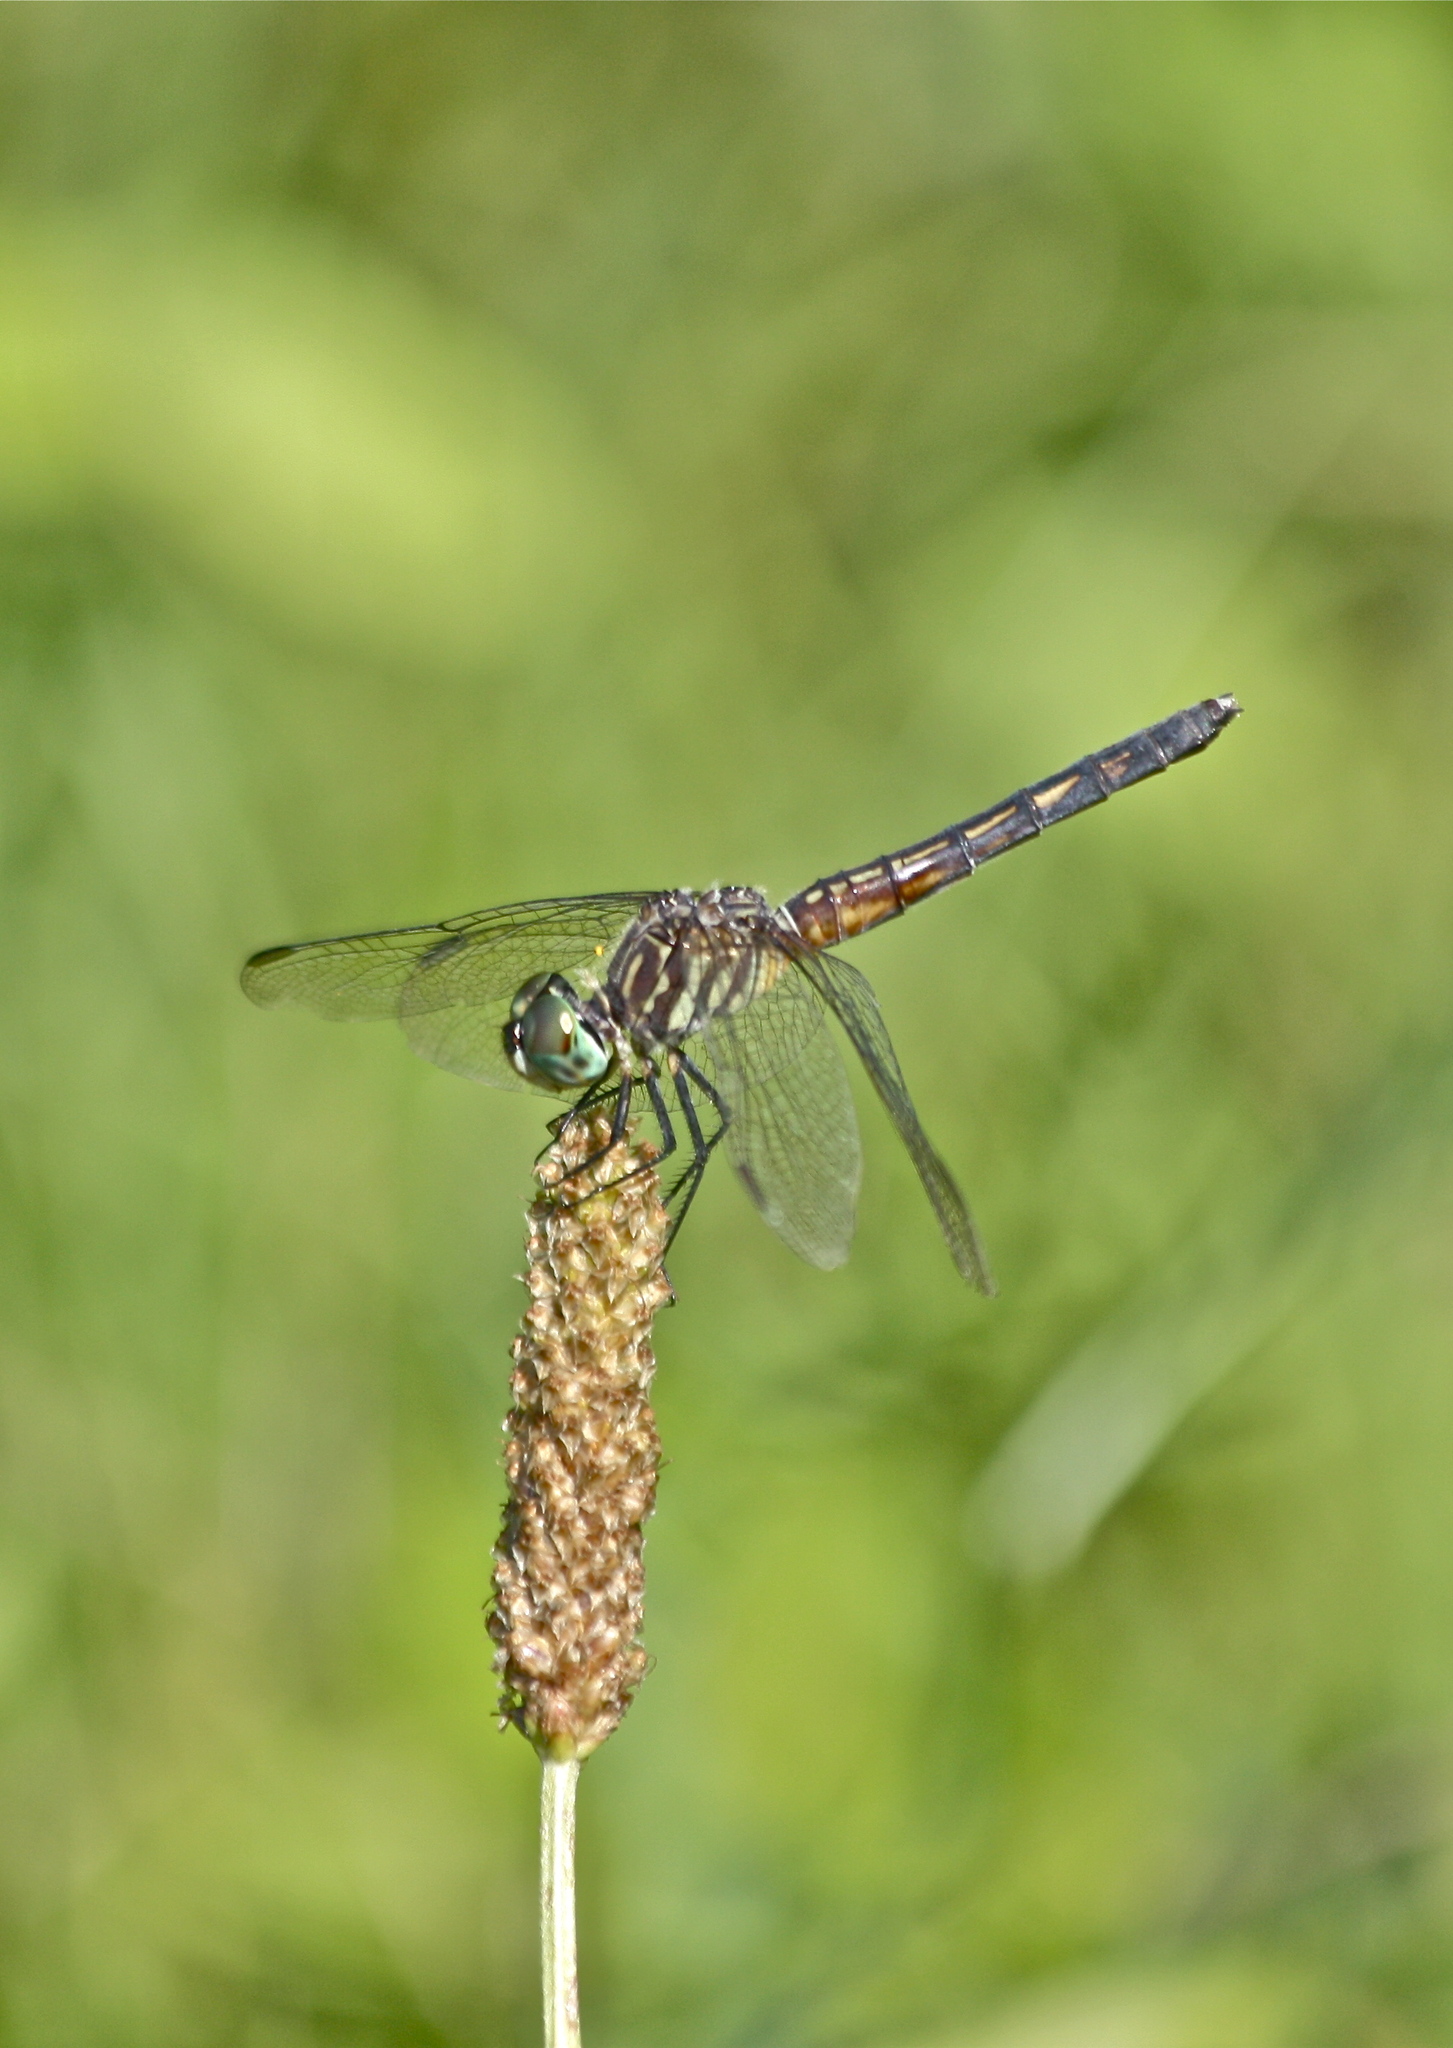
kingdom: Animalia
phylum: Arthropoda
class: Insecta
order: Odonata
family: Libellulidae
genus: Pachydiplax
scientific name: Pachydiplax longipennis
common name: Blue dasher
